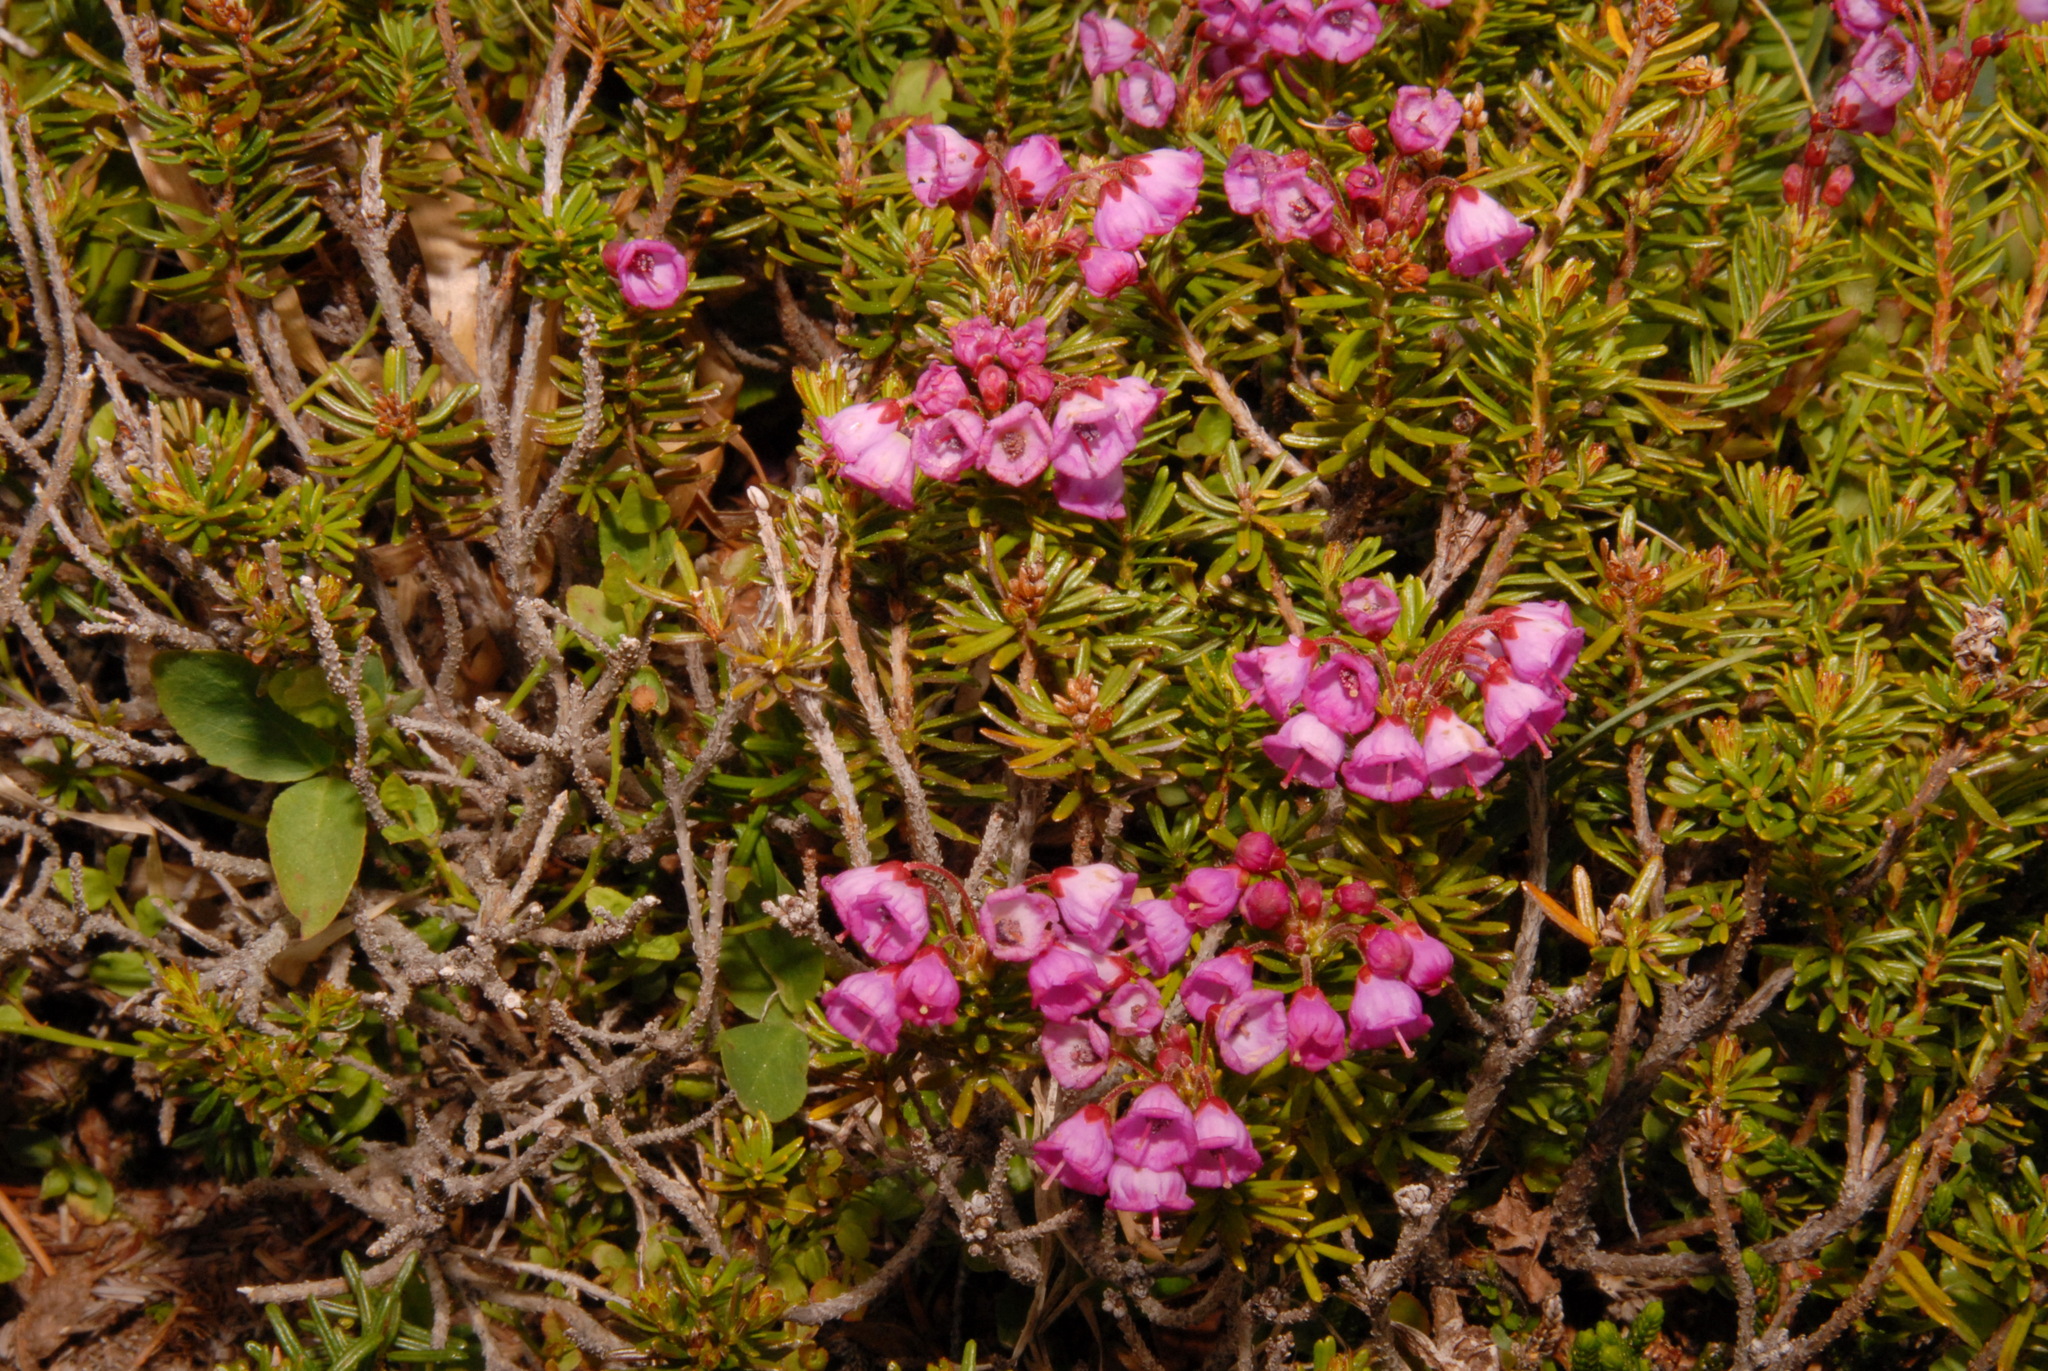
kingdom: Plantae
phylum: Tracheophyta
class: Magnoliopsida
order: Ericales
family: Ericaceae
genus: Phyllodoce
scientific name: Phyllodoce empetriformis
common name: Pink mountain heather
